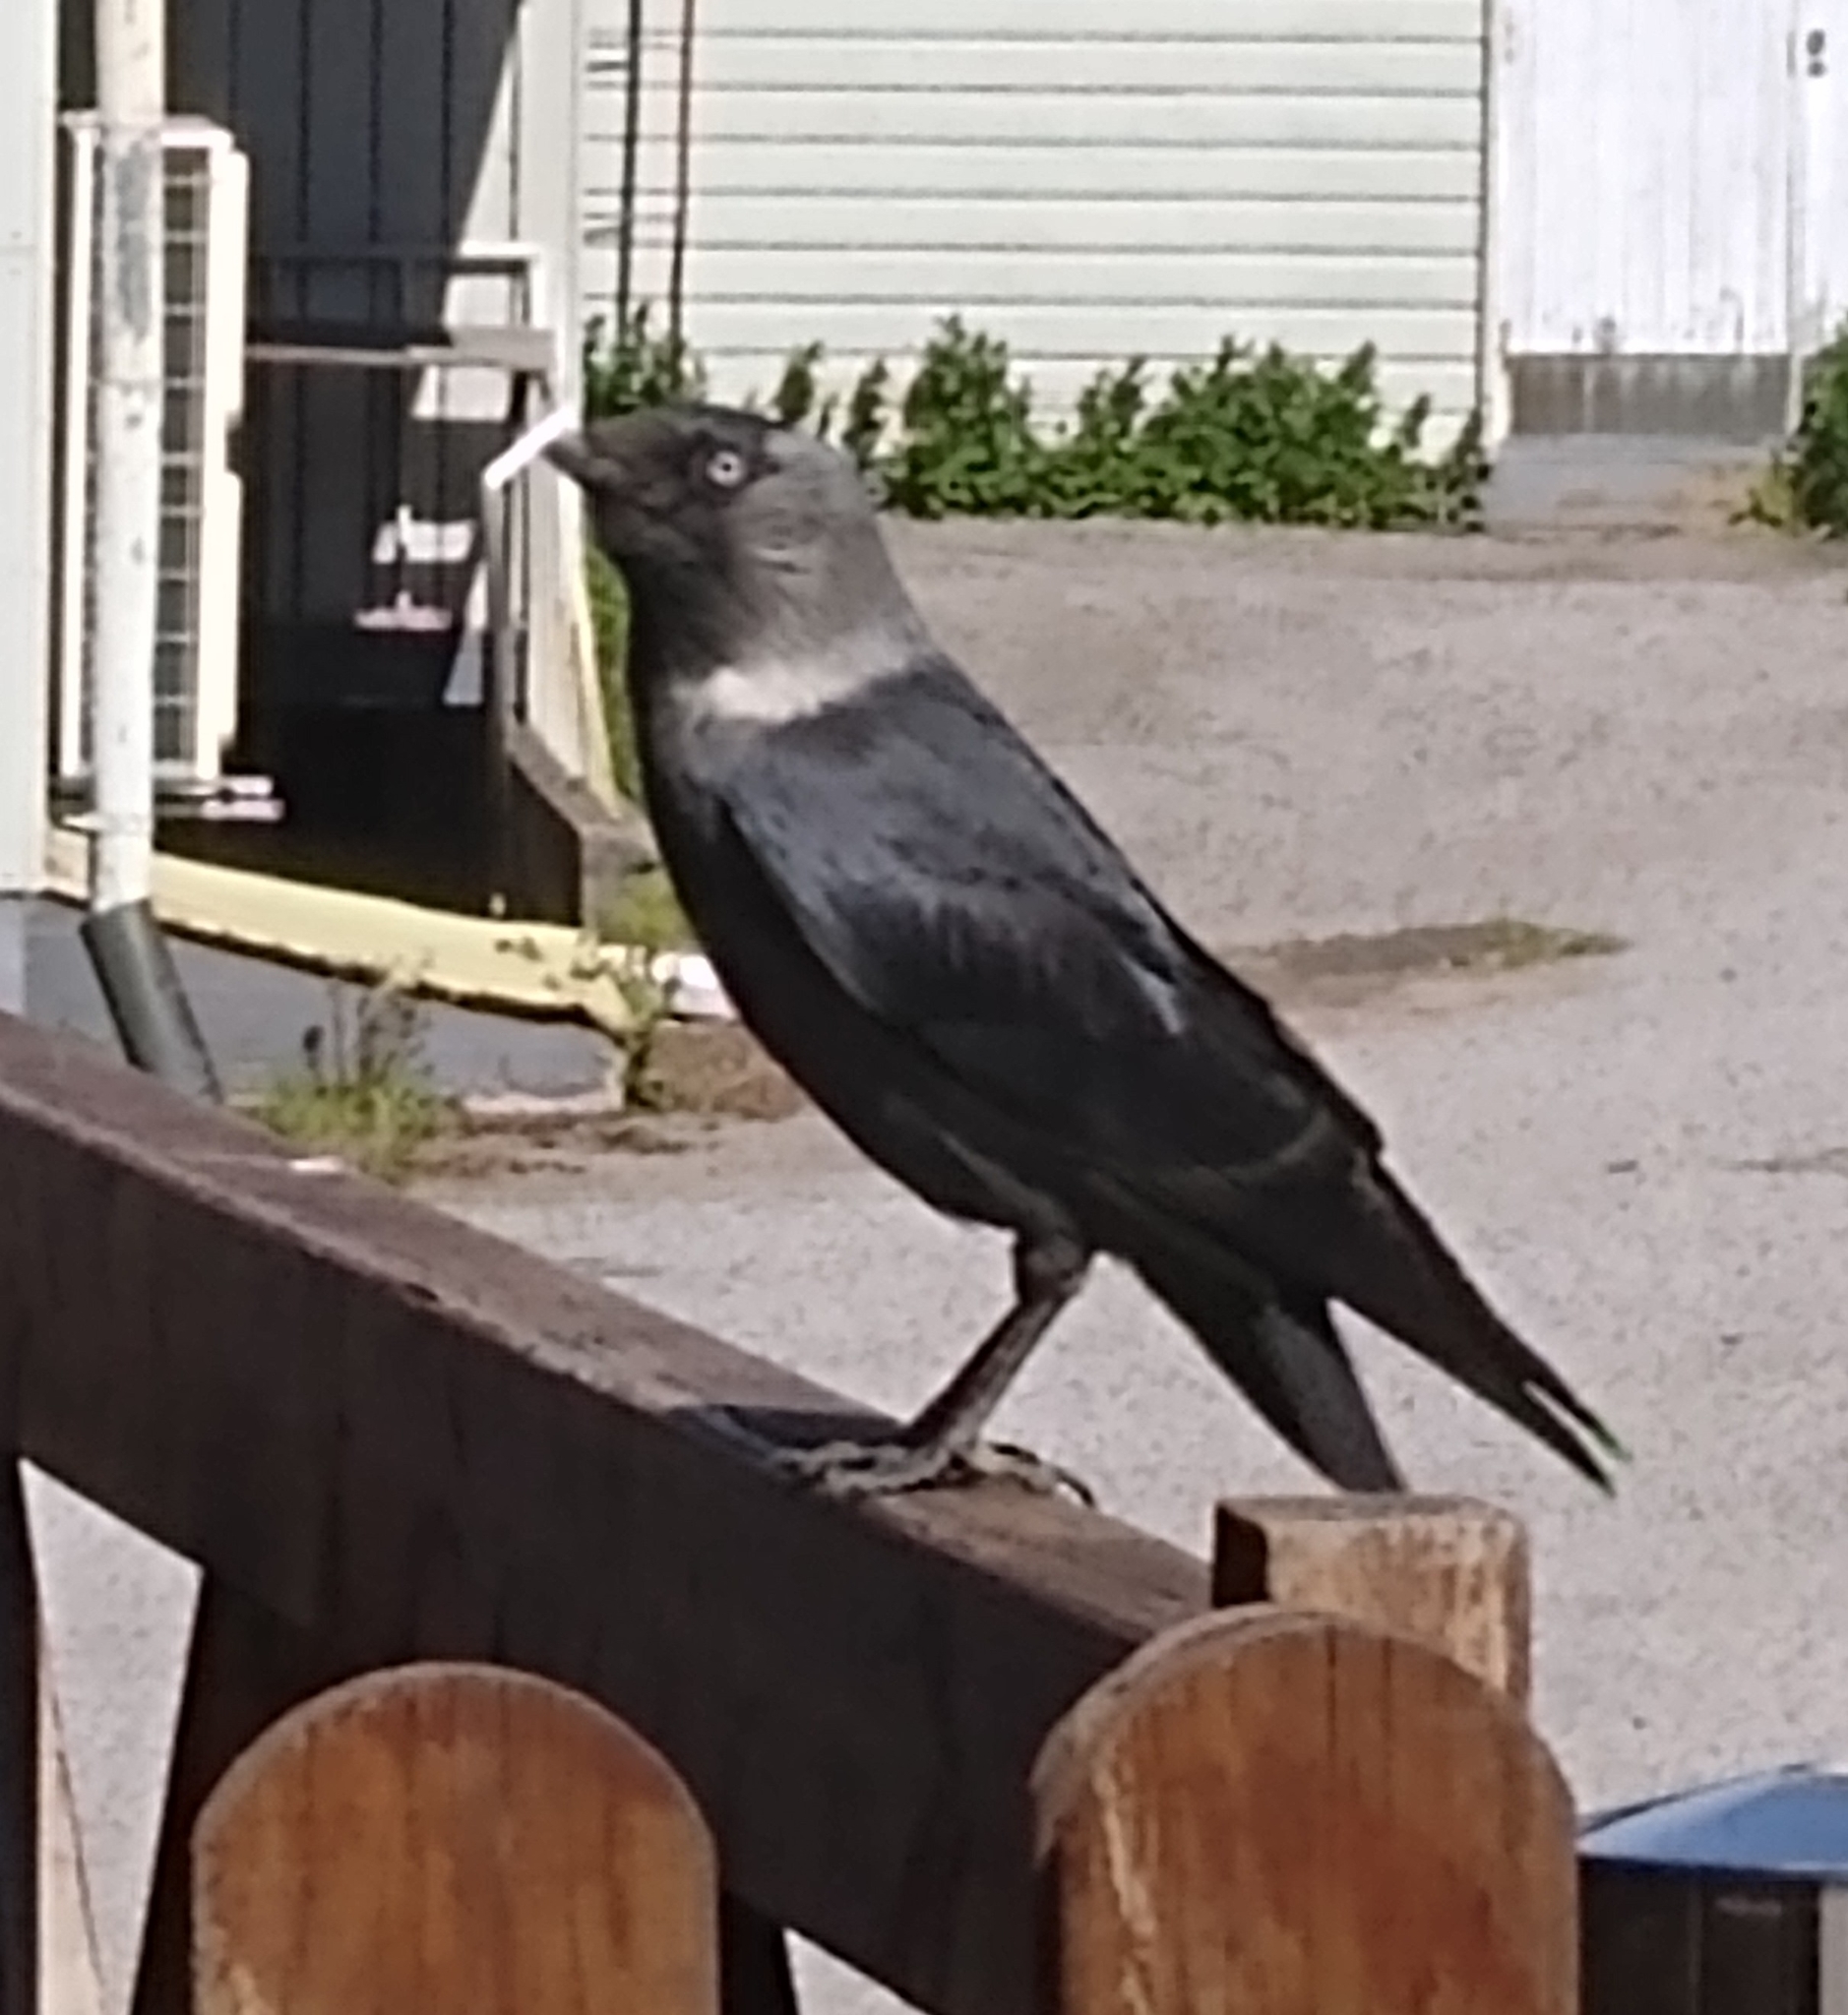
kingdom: Animalia
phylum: Chordata
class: Aves
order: Passeriformes
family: Corvidae
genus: Coloeus
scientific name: Coloeus monedula
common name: Western jackdaw
